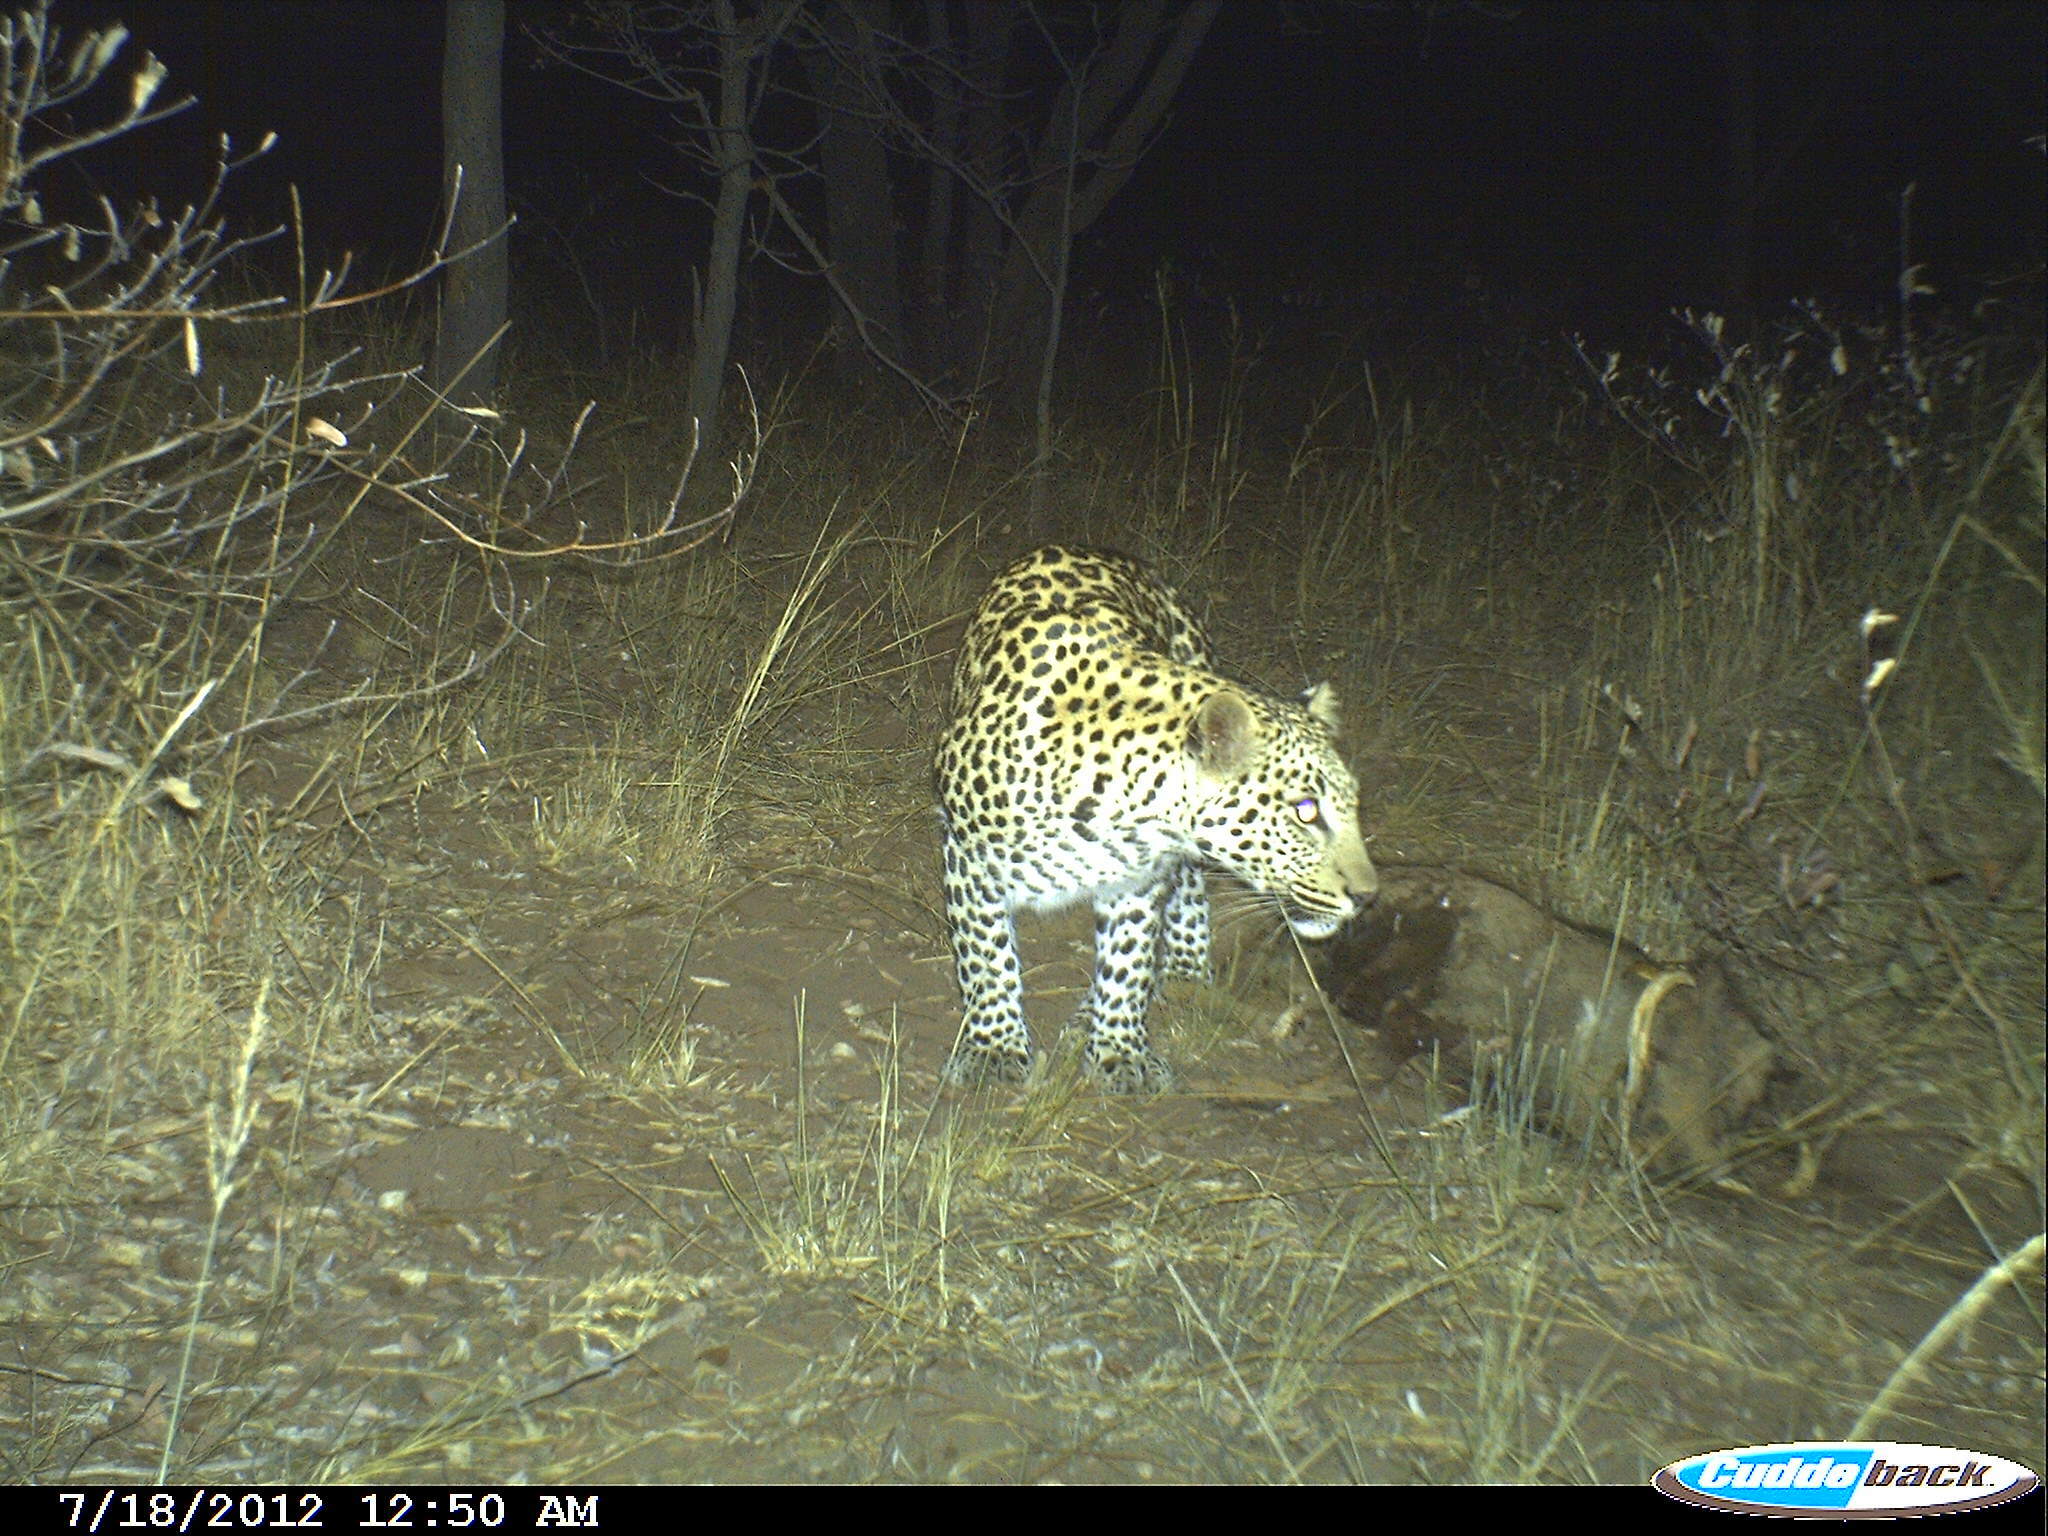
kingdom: Animalia
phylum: Chordata
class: Mammalia
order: Carnivora
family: Felidae
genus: Panthera
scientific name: Panthera pardus
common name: Leopard
